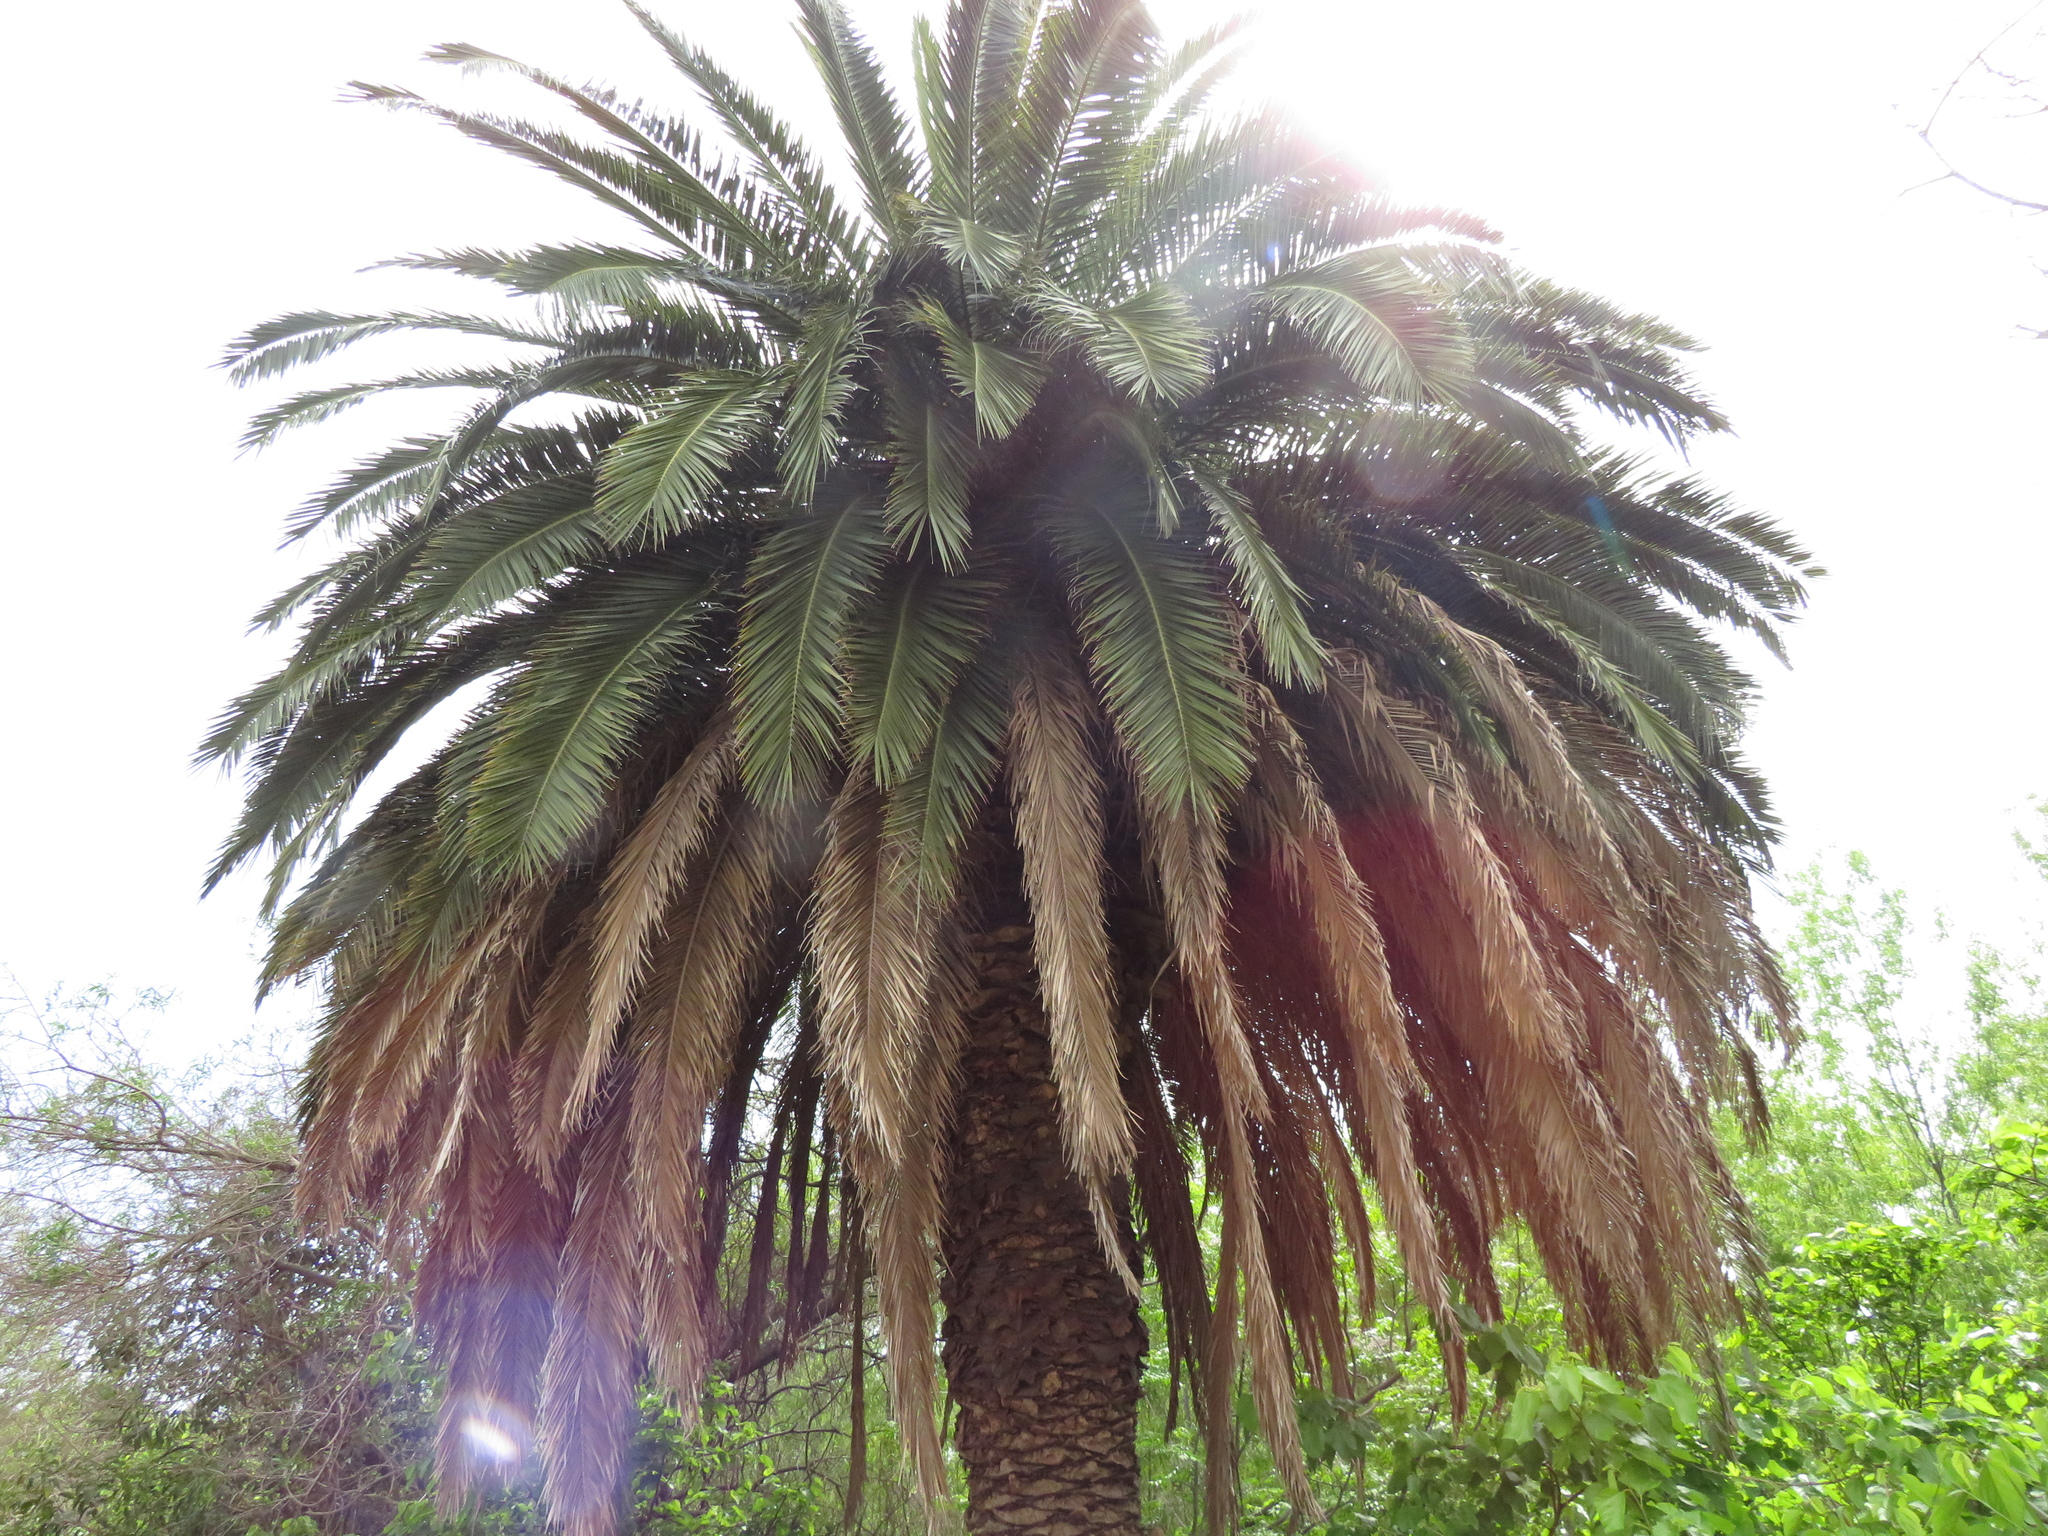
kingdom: Plantae
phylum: Tracheophyta
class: Liliopsida
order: Arecales
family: Arecaceae
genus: Phoenix
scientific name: Phoenix canariensis
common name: Canary island date palm
